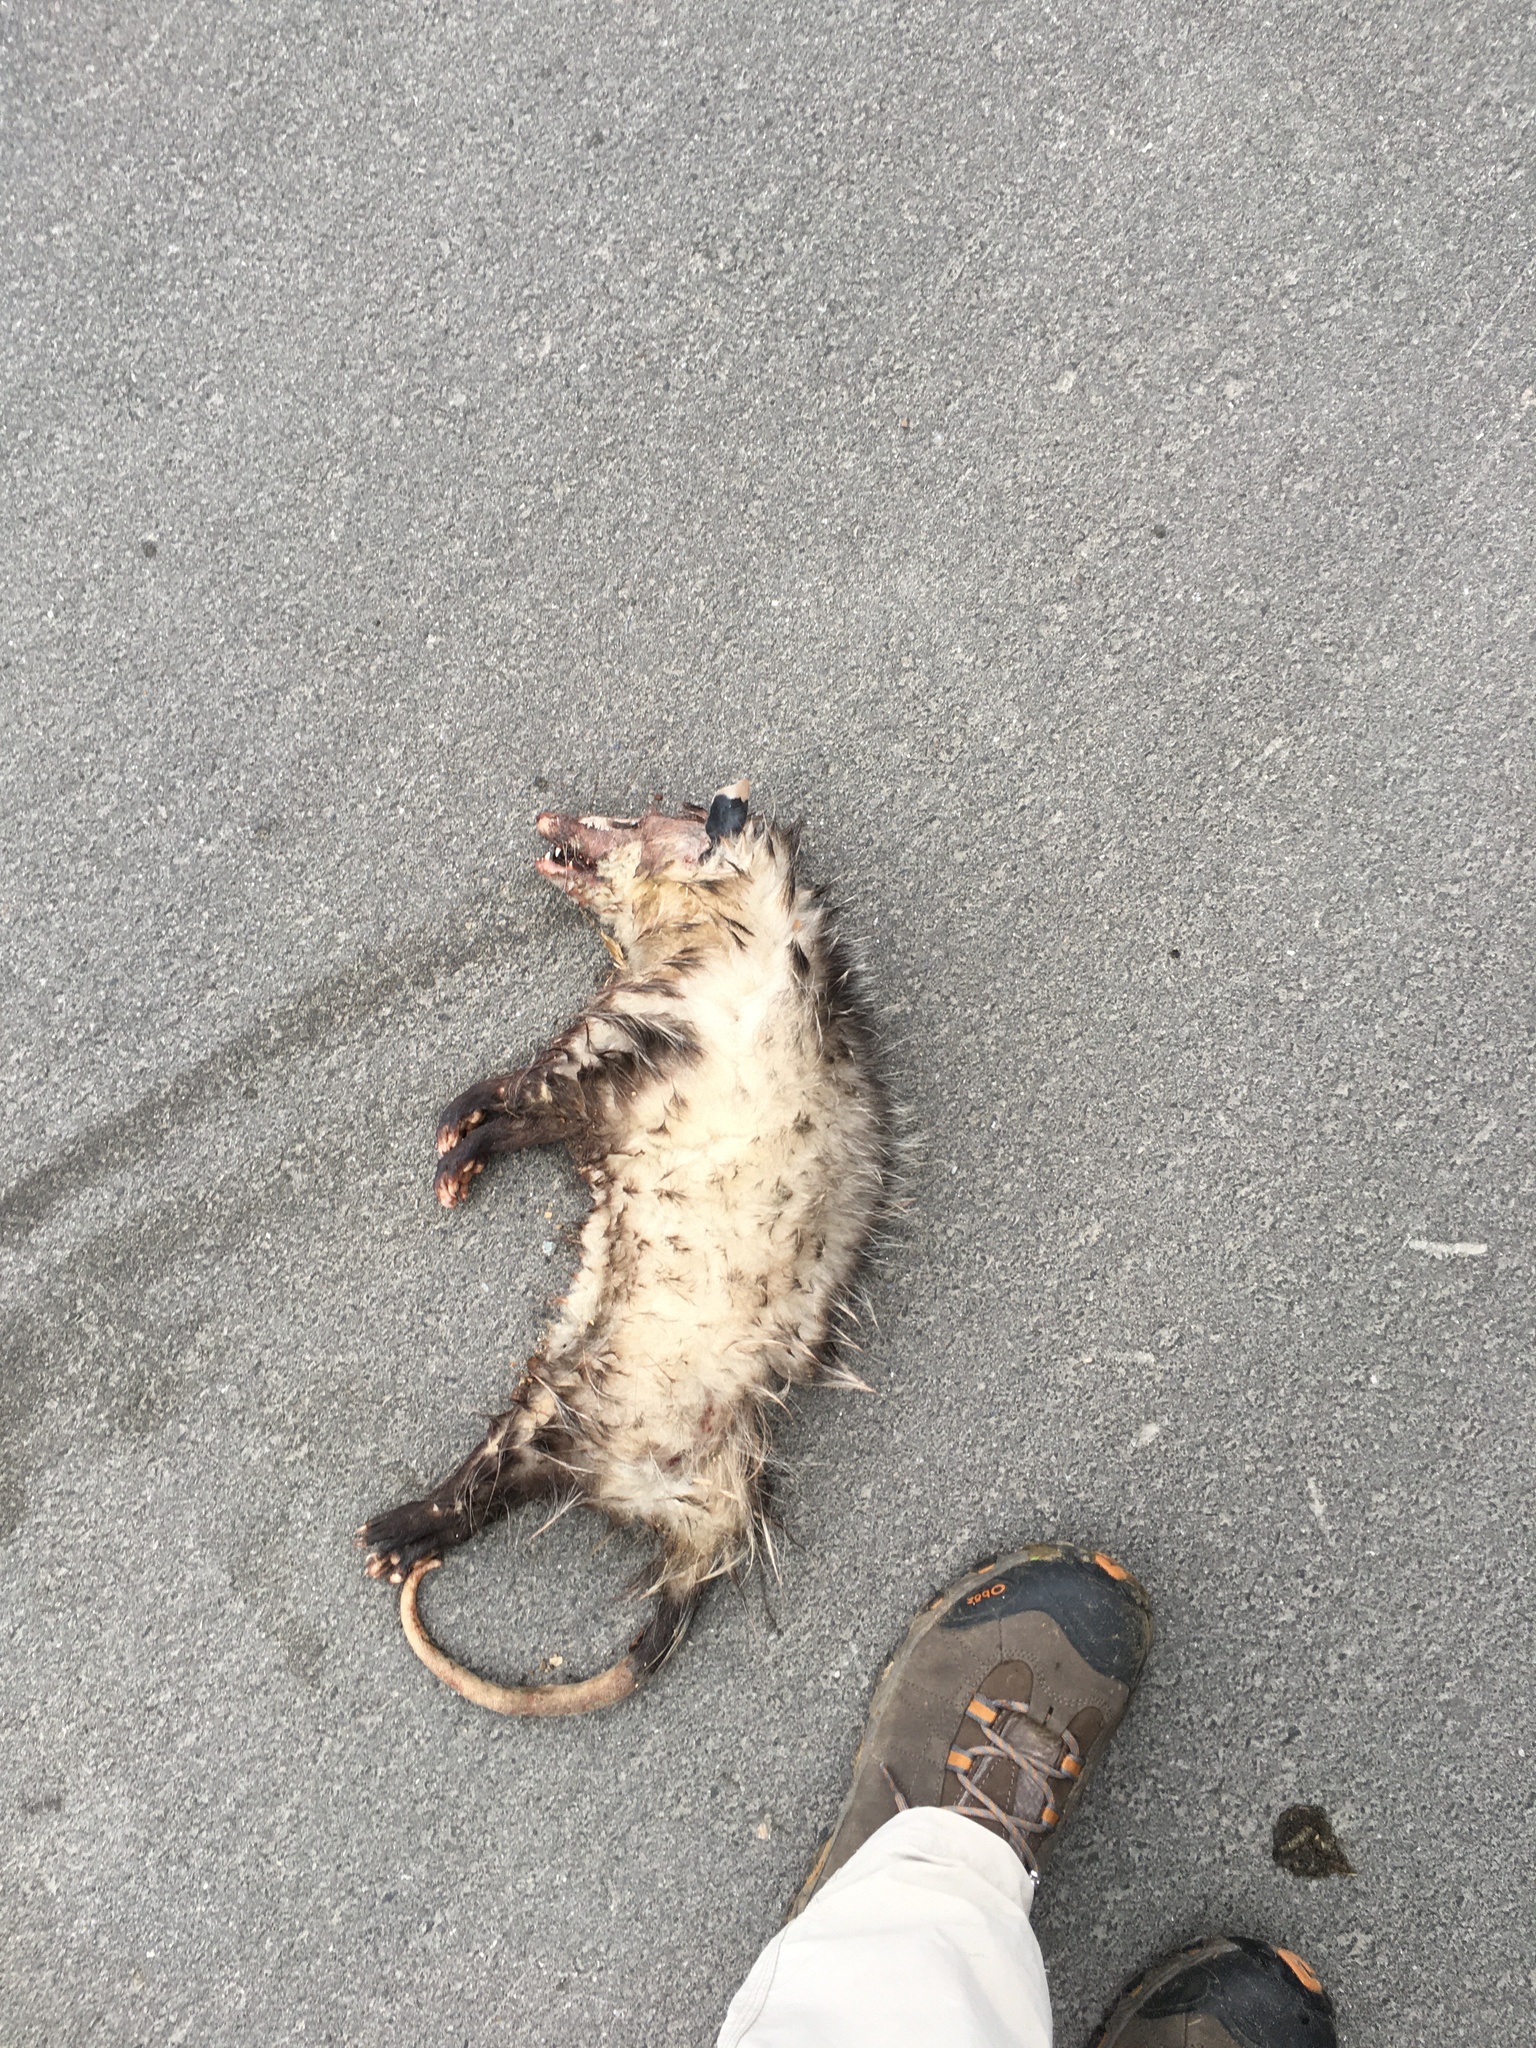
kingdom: Animalia
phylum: Chordata
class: Mammalia
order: Didelphimorphia
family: Didelphidae
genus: Didelphis
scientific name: Didelphis virginiana
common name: Virginia opossum
